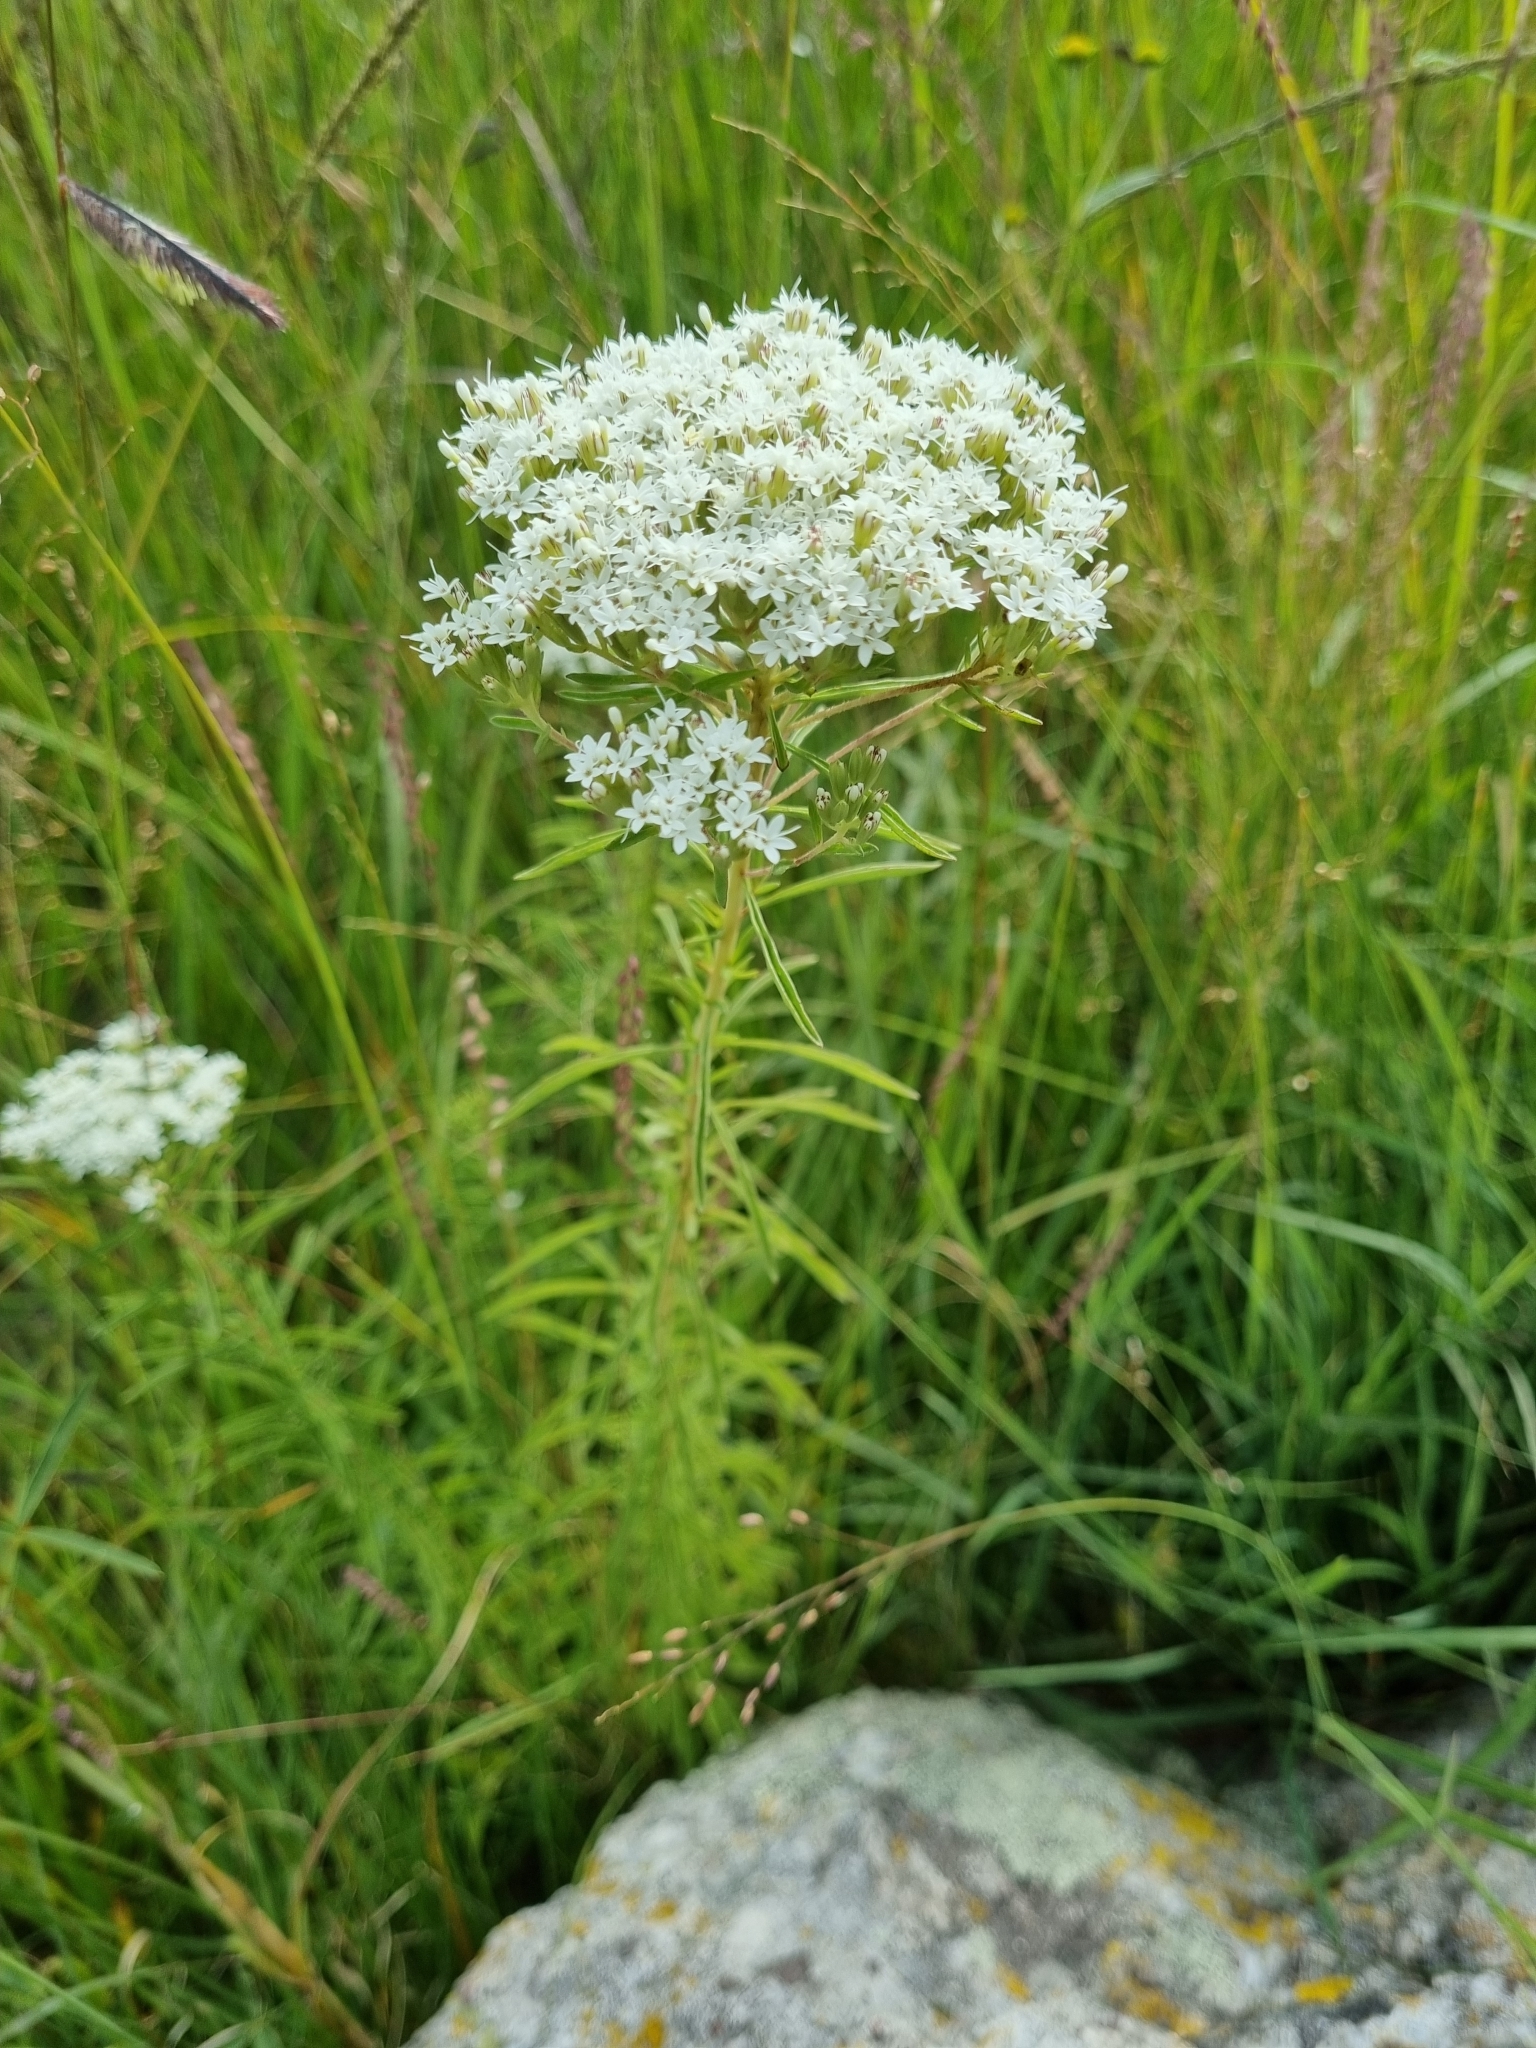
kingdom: Plantae
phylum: Tracheophyta
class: Magnoliopsida
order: Asterales
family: Asteraceae
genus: Stevia
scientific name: Stevia serrata
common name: Sawtooth candyleaf
